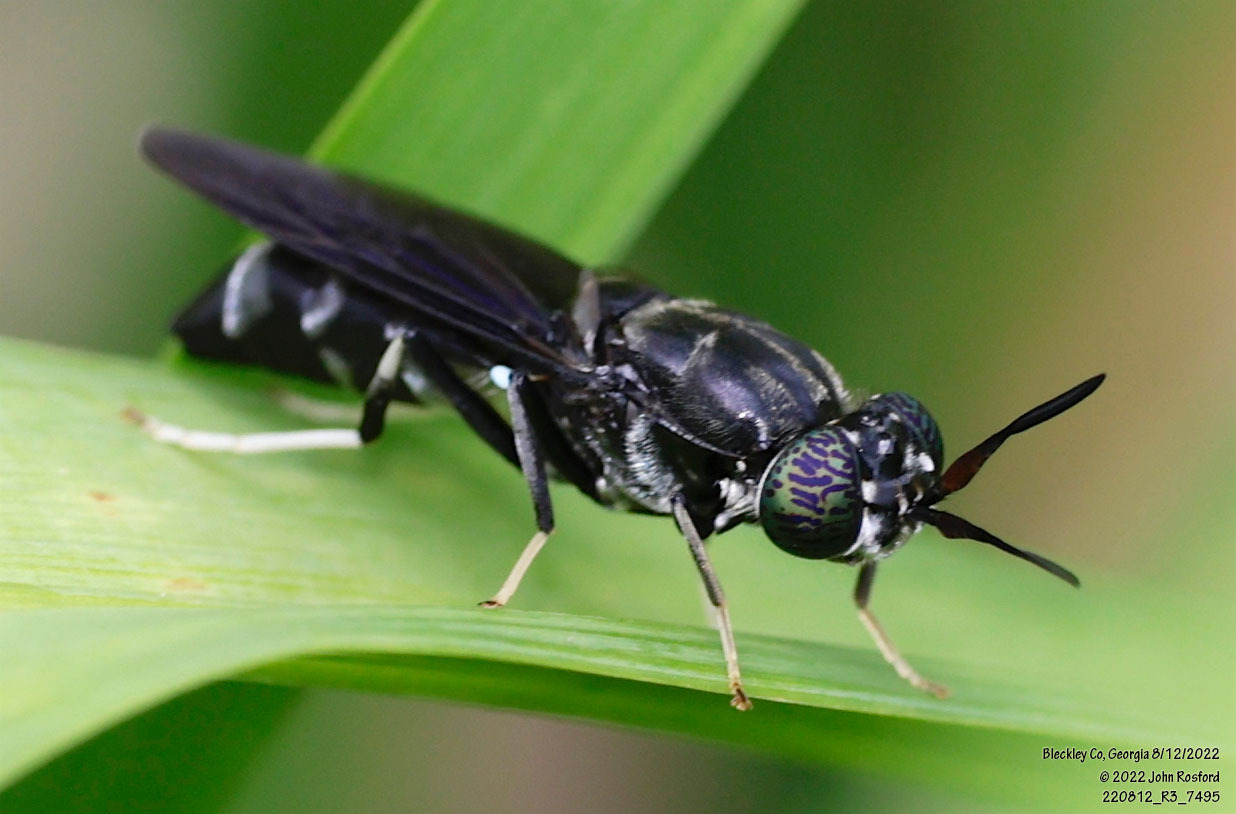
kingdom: Animalia
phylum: Arthropoda
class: Insecta
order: Diptera
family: Stratiomyidae
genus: Hermetia
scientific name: Hermetia illucens
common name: Black soldier fly
